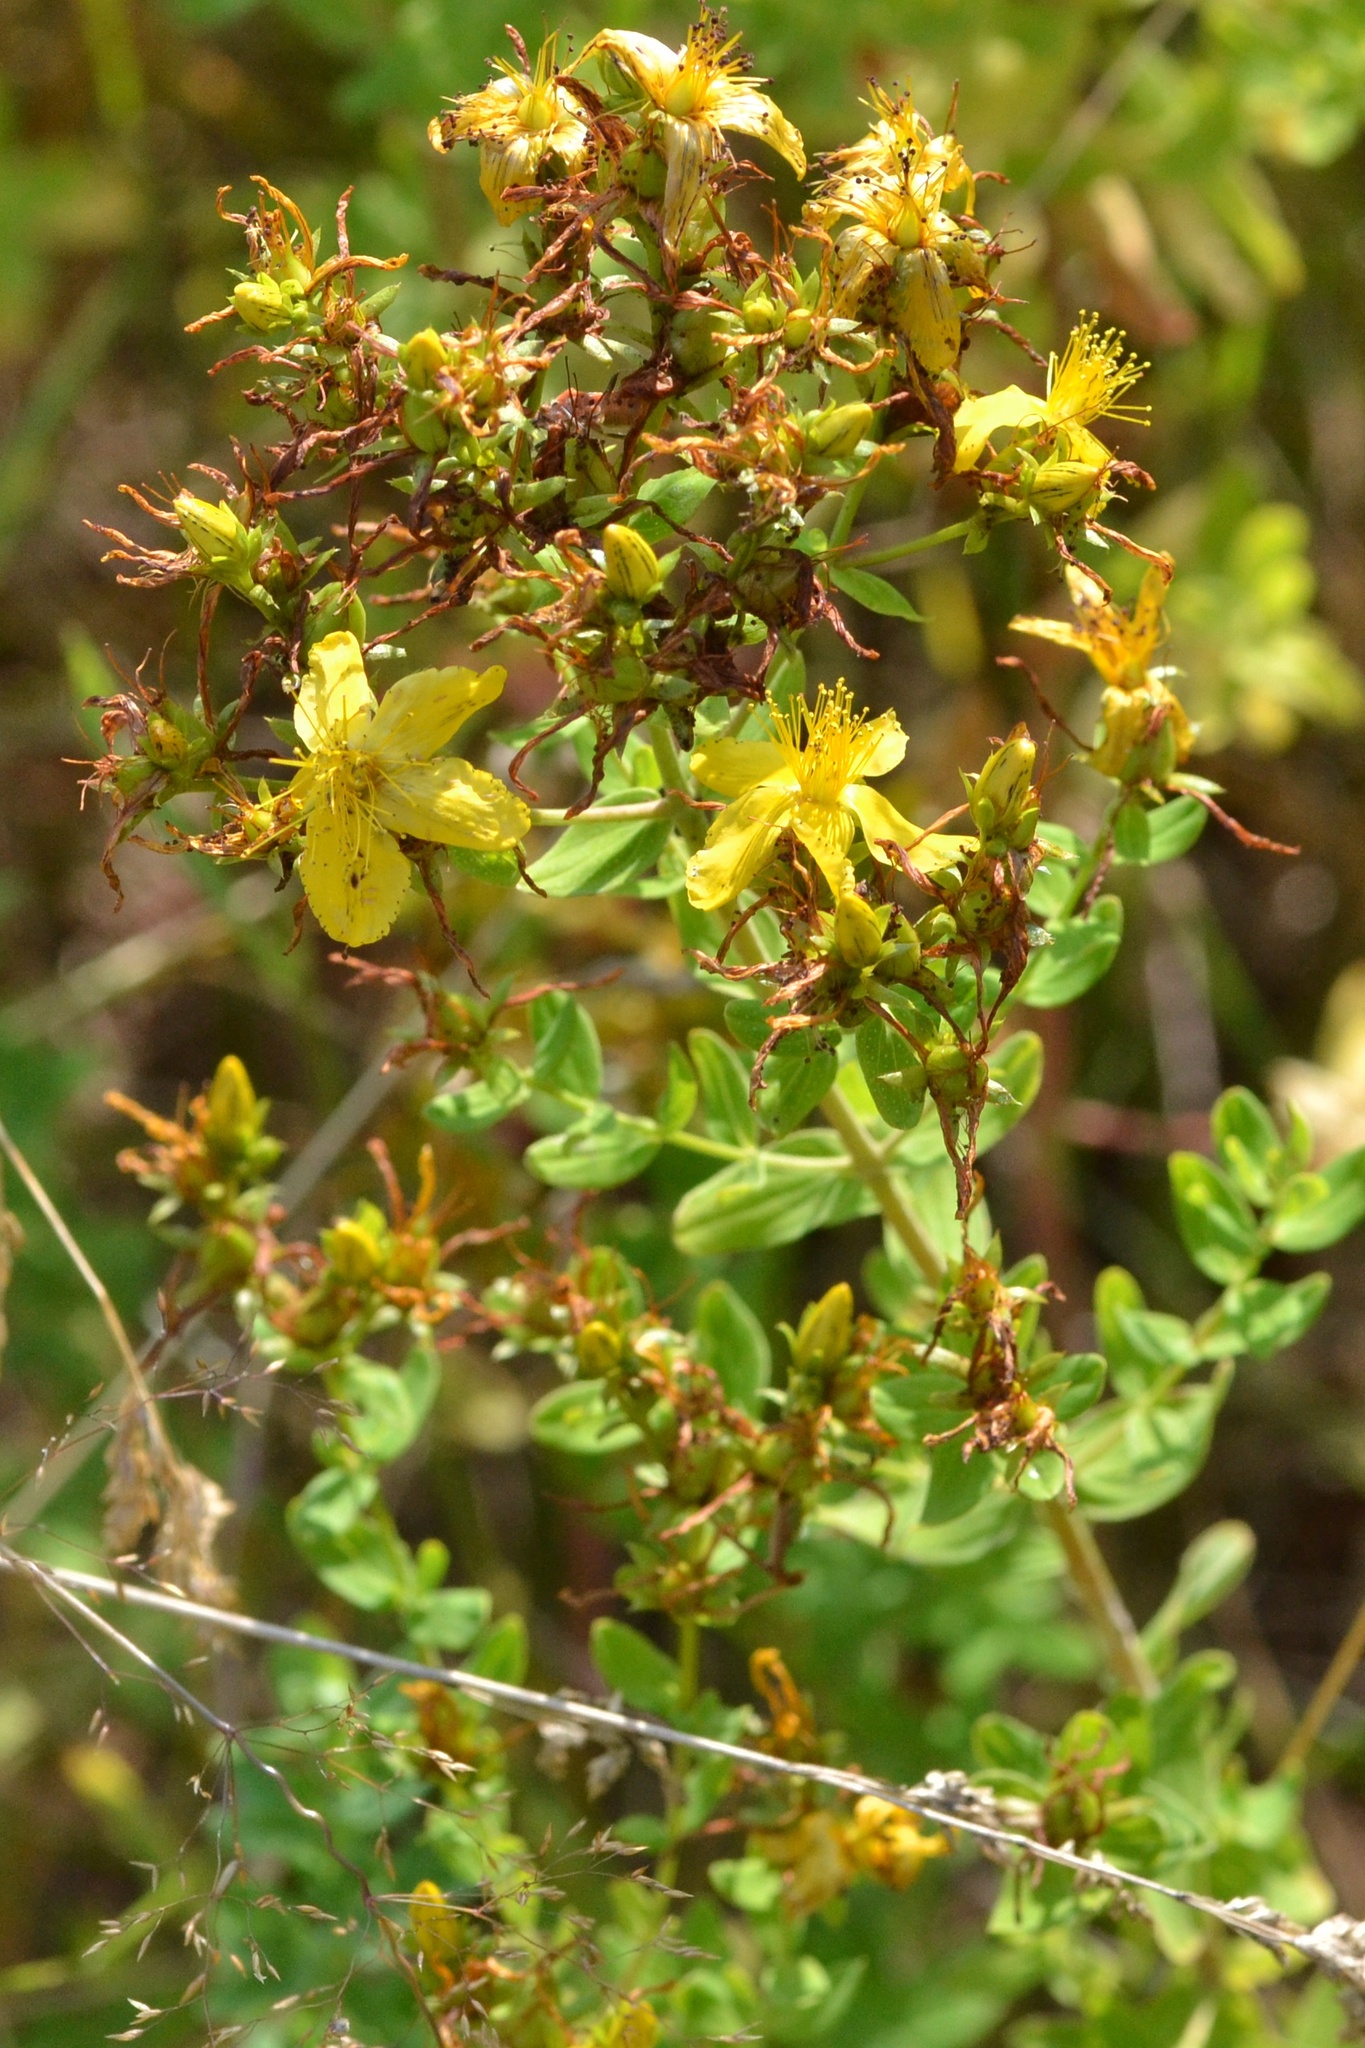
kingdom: Plantae
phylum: Tracheophyta
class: Magnoliopsida
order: Malpighiales
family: Hypericaceae
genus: Hypericum
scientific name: Hypericum perforatum
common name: Common st. johnswort
